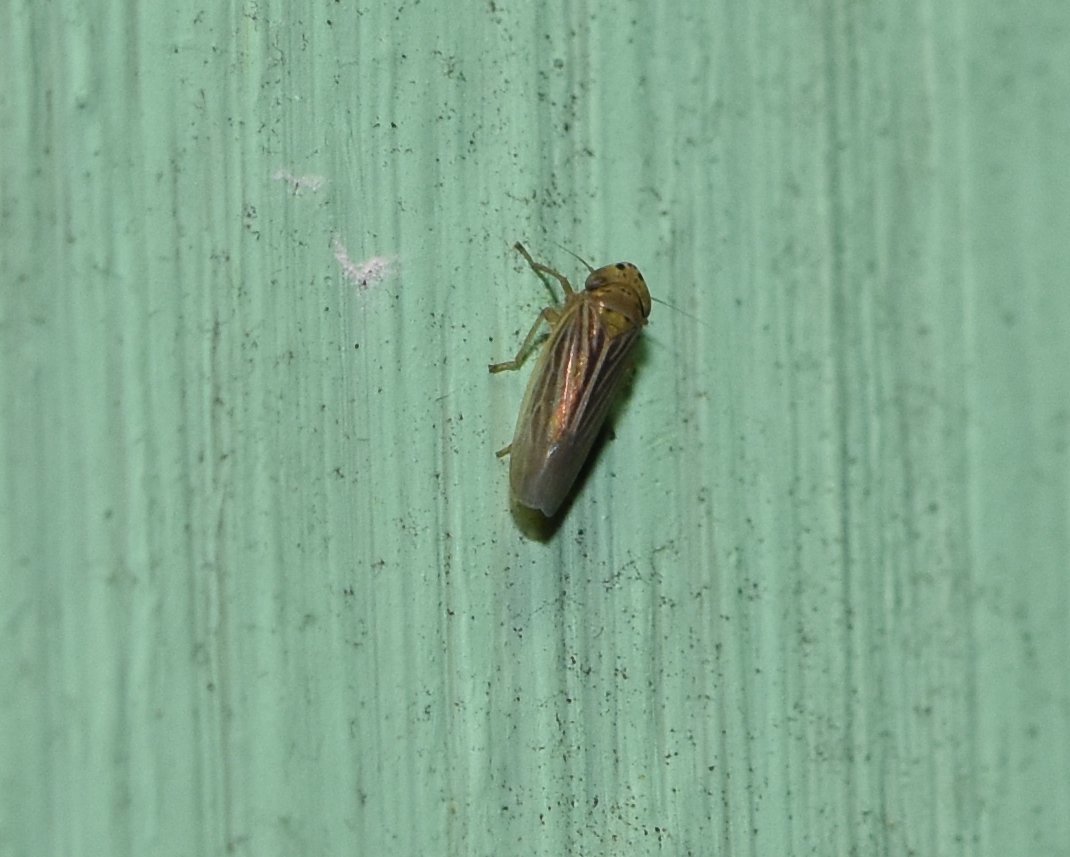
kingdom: Animalia
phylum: Arthropoda
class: Insecta
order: Hemiptera
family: Cicadellidae
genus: Graminella
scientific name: Graminella cognita
